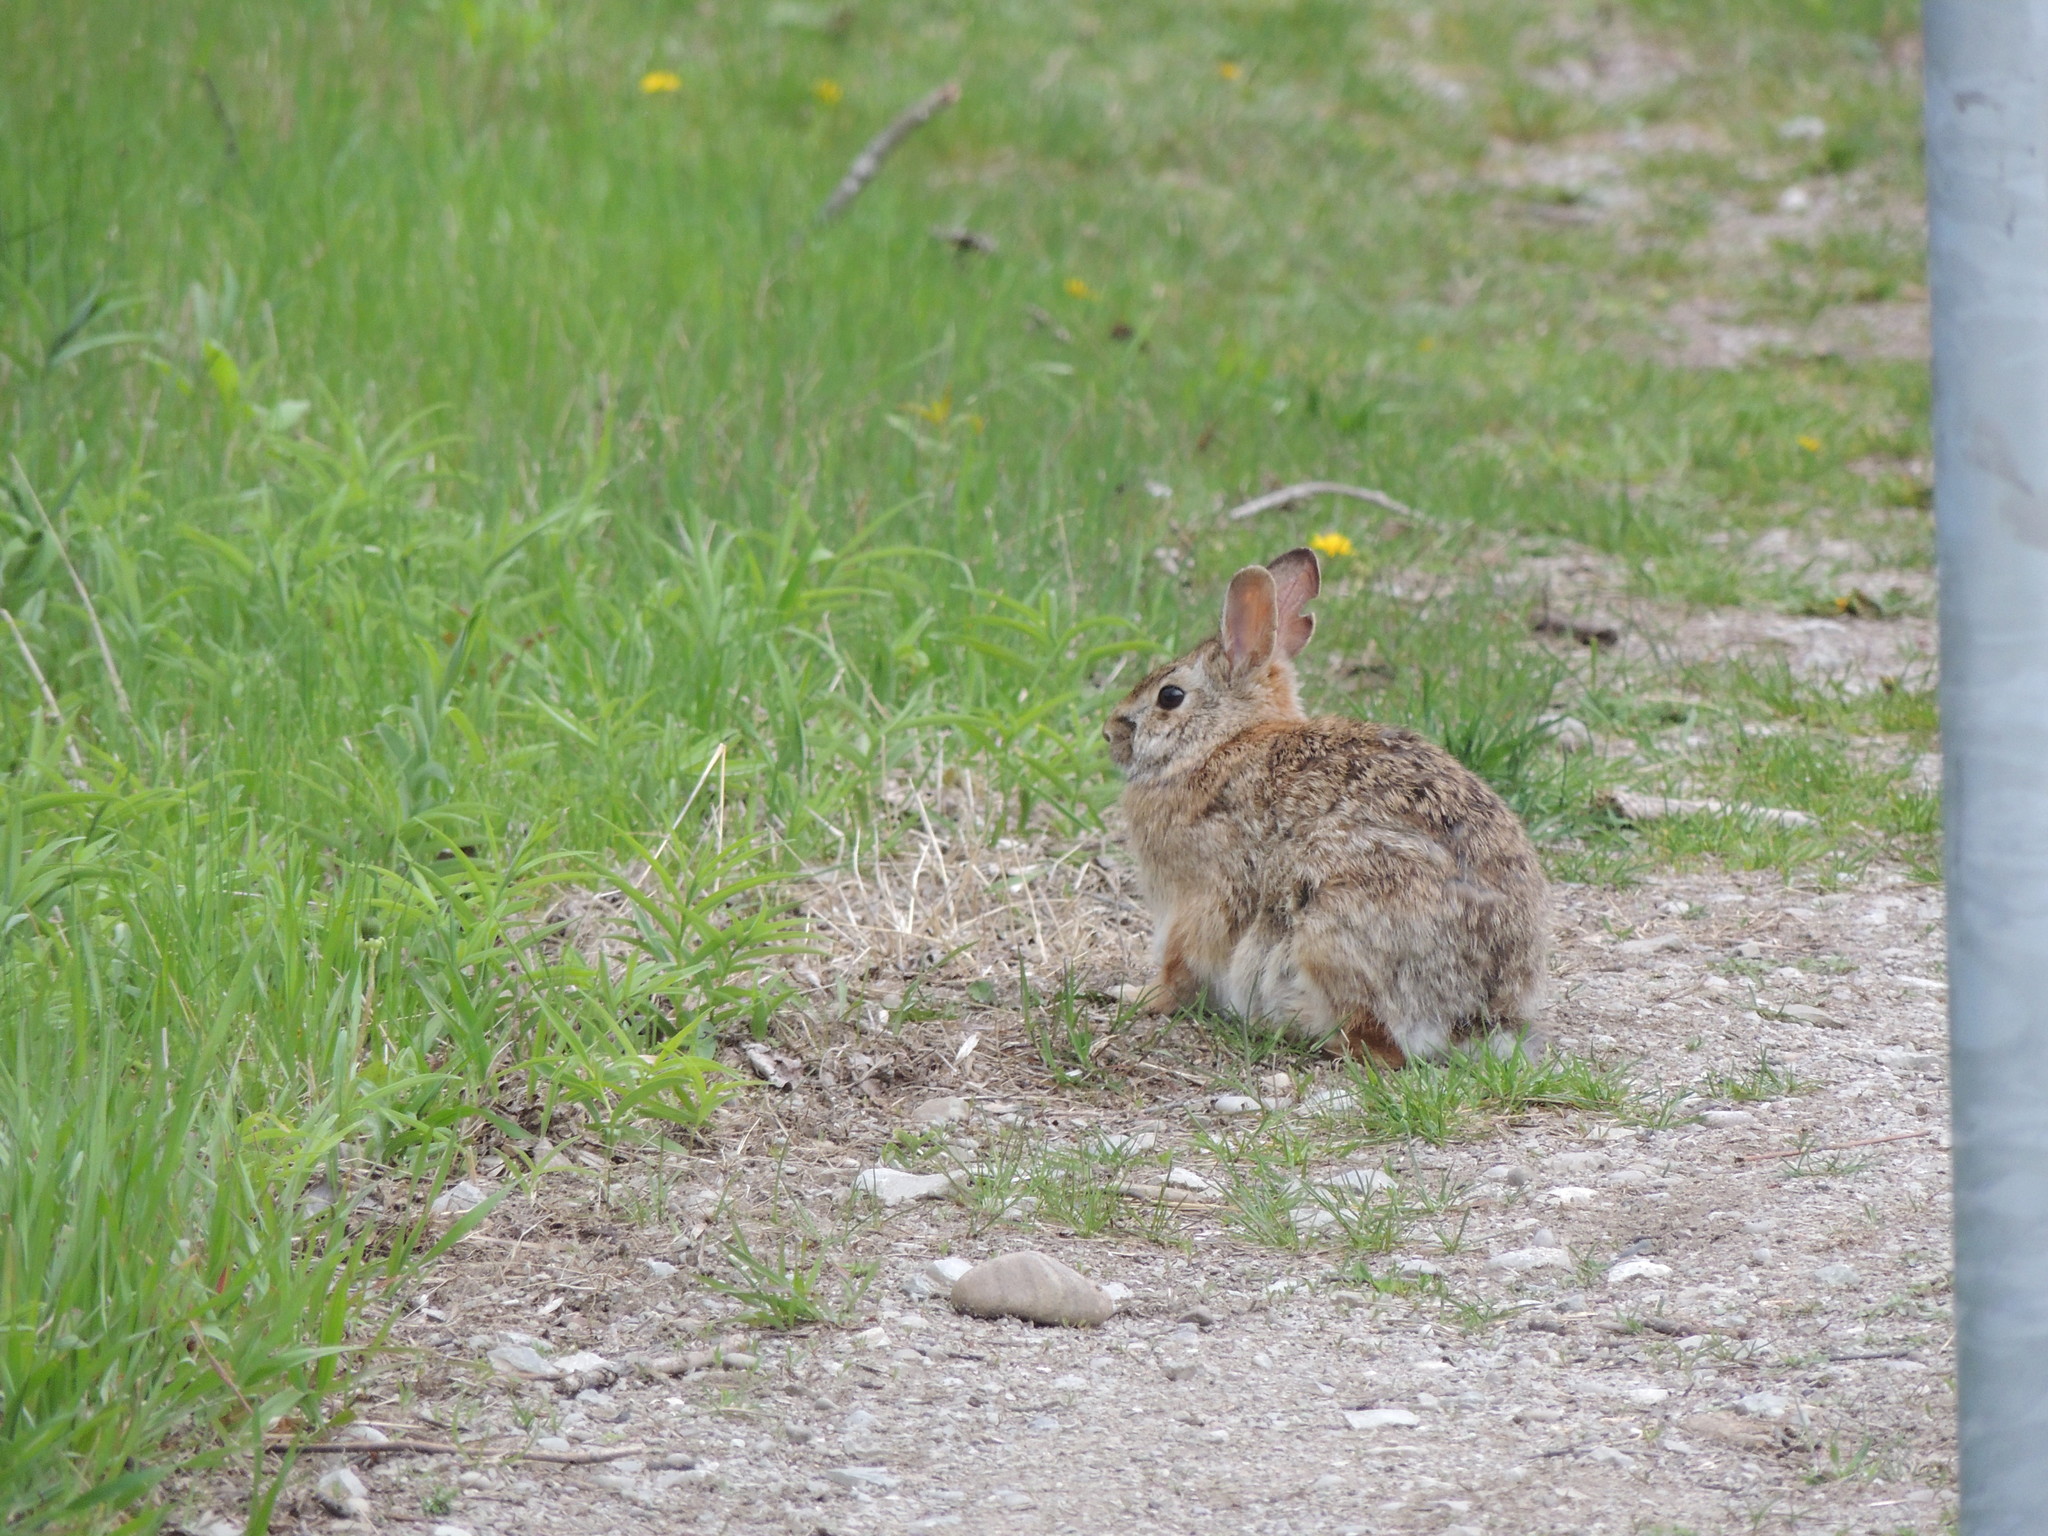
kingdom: Animalia
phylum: Chordata
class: Mammalia
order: Lagomorpha
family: Leporidae
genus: Sylvilagus
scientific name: Sylvilagus floridanus
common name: Eastern cottontail
